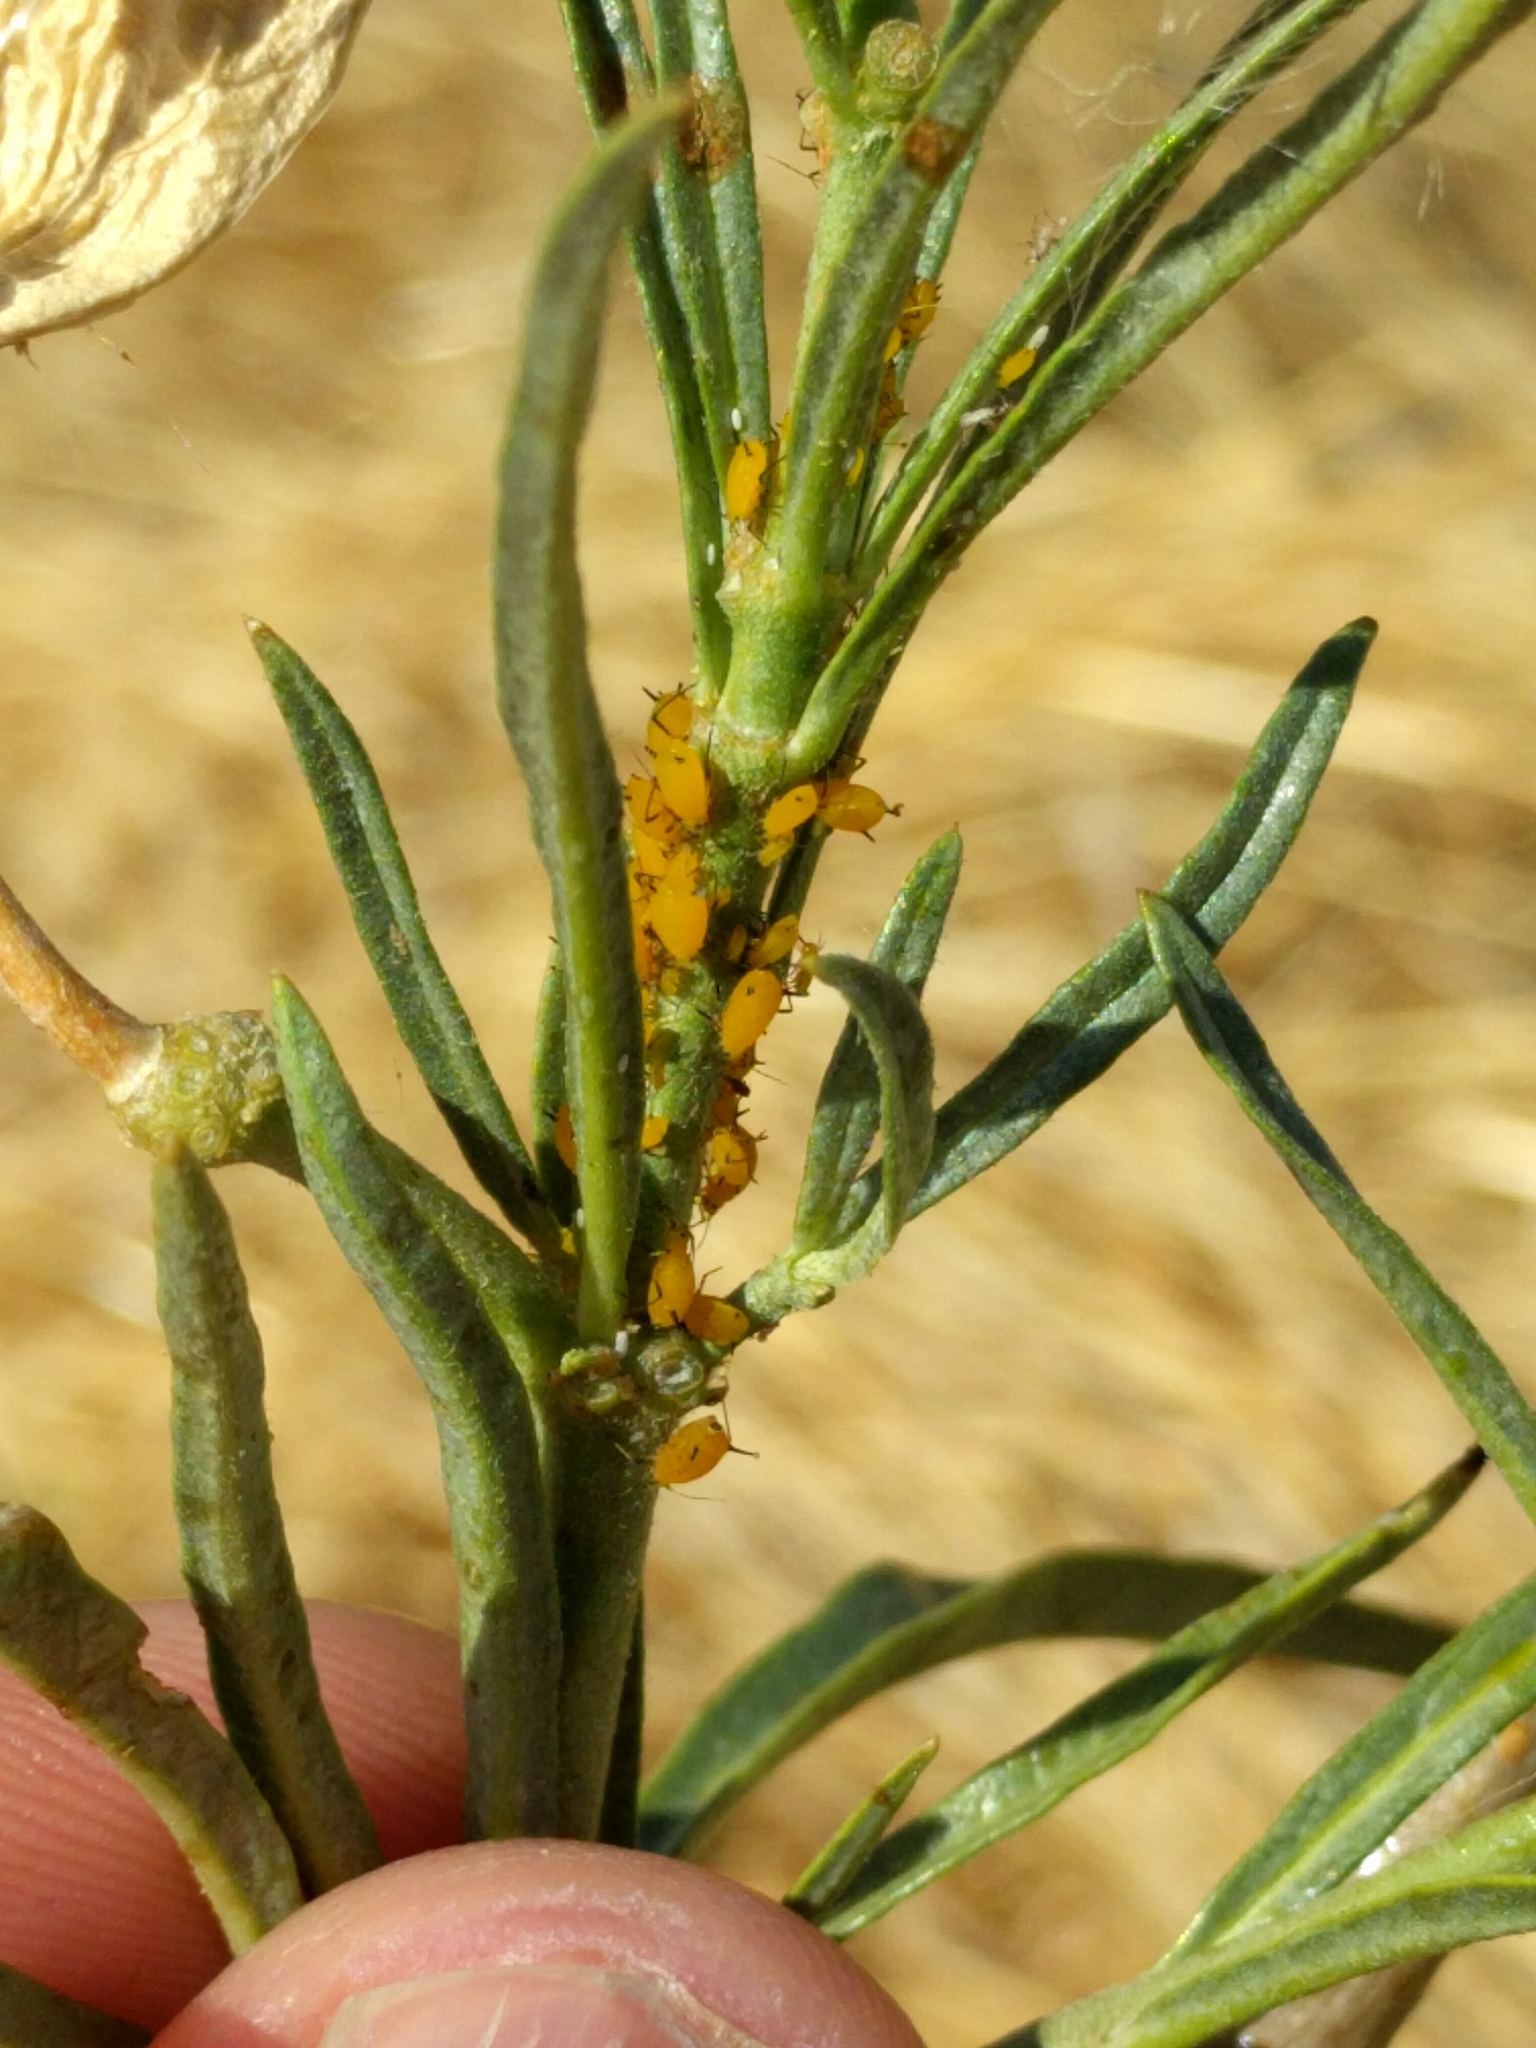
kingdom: Animalia
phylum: Arthropoda
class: Insecta
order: Hemiptera
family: Aphididae
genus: Aphis
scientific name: Aphis nerii
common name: Oleander aphid
